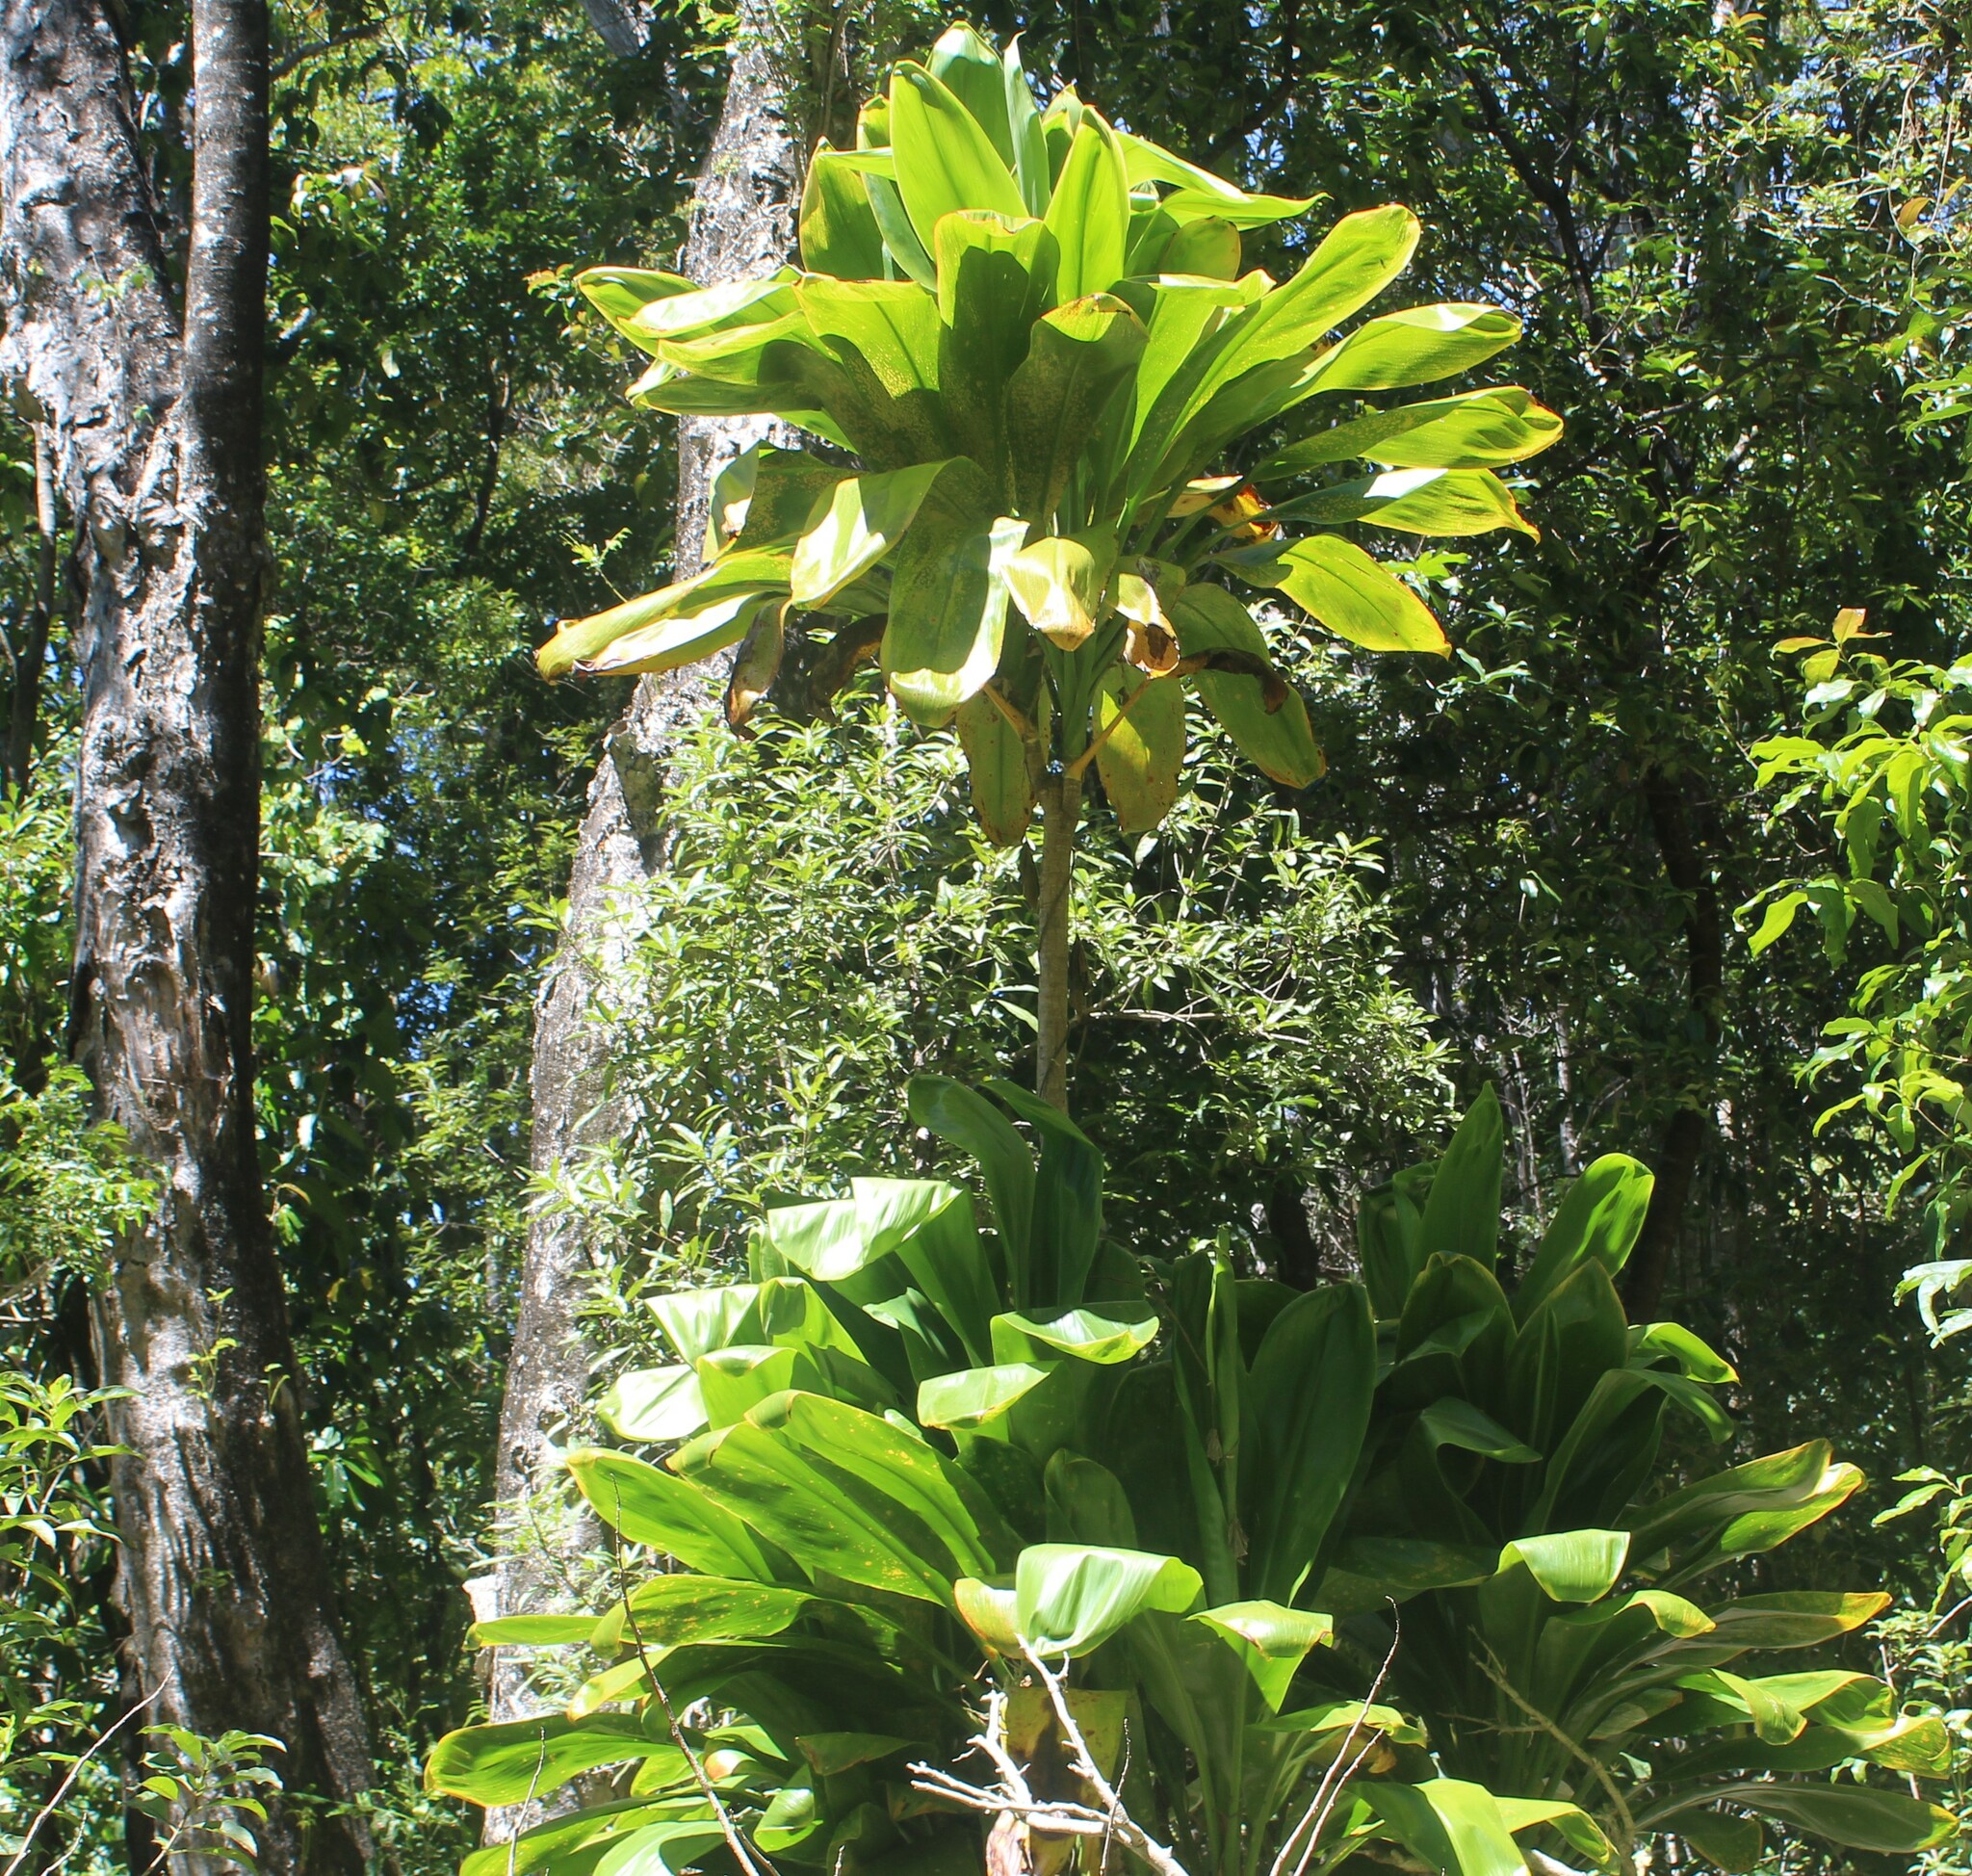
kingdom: Plantae
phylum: Tracheophyta
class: Liliopsida
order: Asparagales
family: Asparagaceae
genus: Cordyline
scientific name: Cordyline fruticosa
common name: Good-luck-plant
